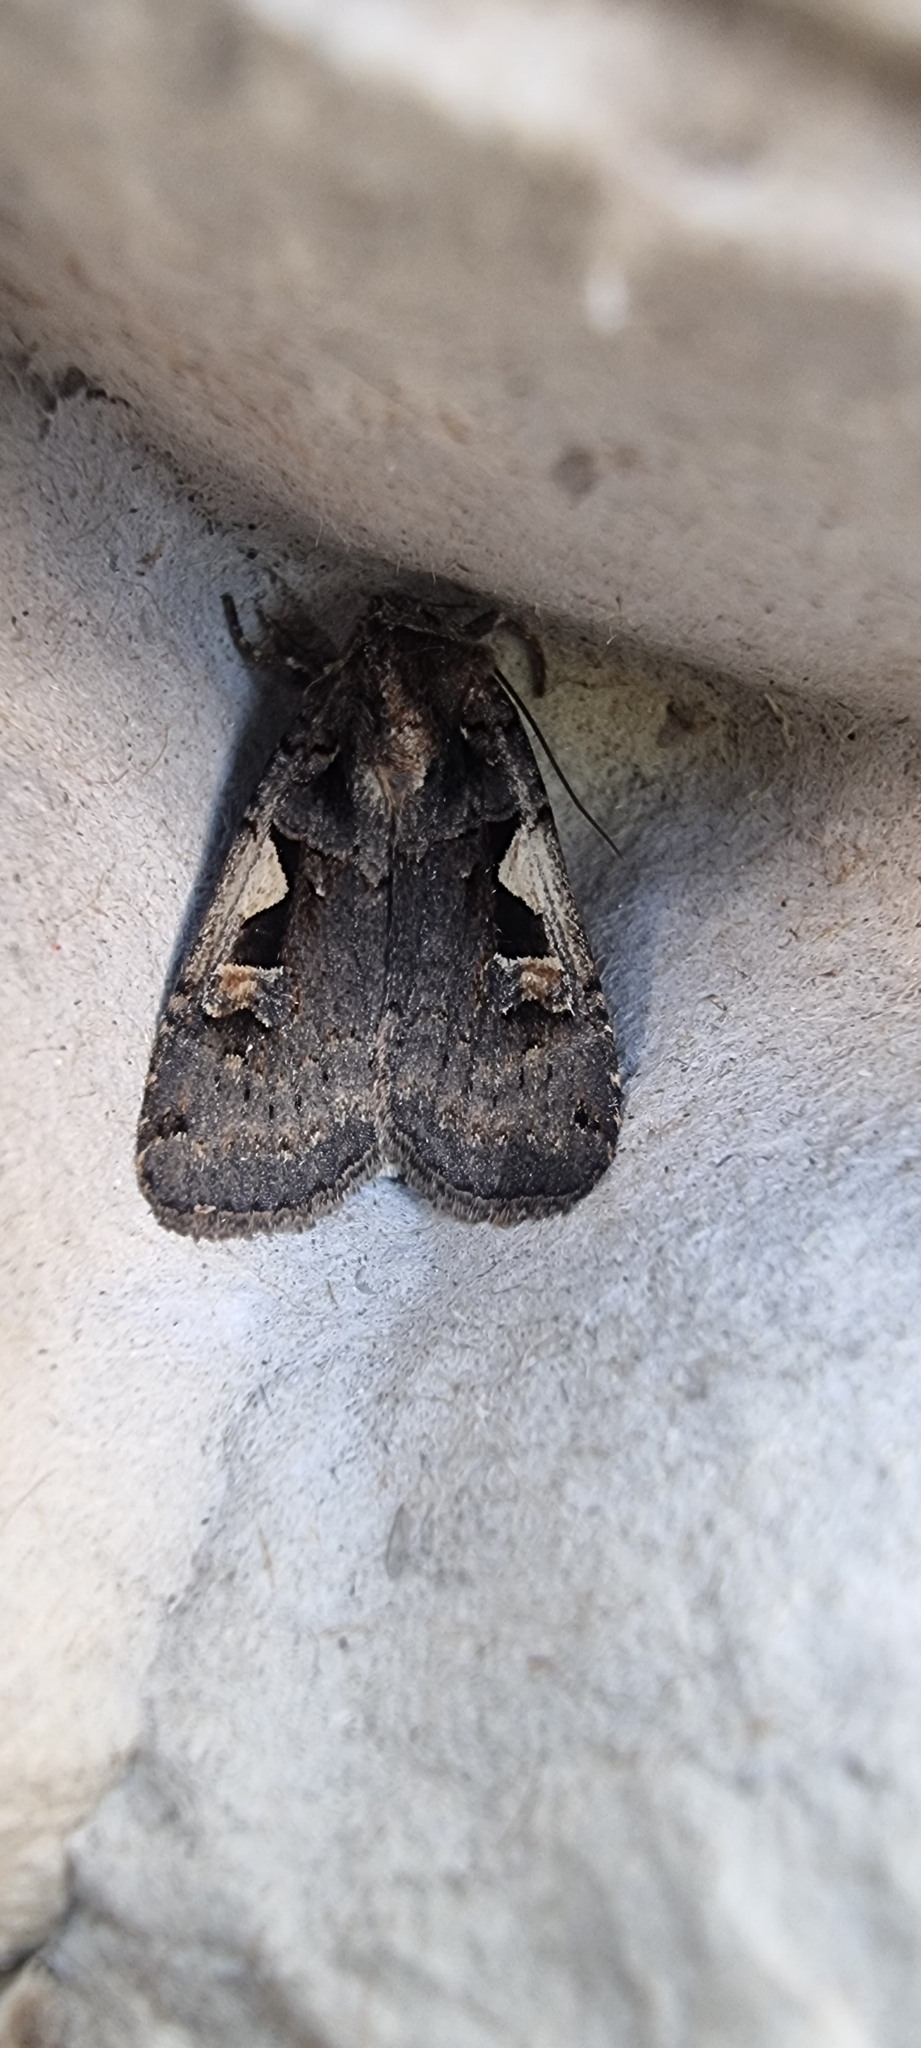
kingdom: Animalia
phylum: Arthropoda
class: Insecta
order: Lepidoptera
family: Noctuidae
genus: Xestia
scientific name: Xestia c-nigrum
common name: Setaceous hebrew character
